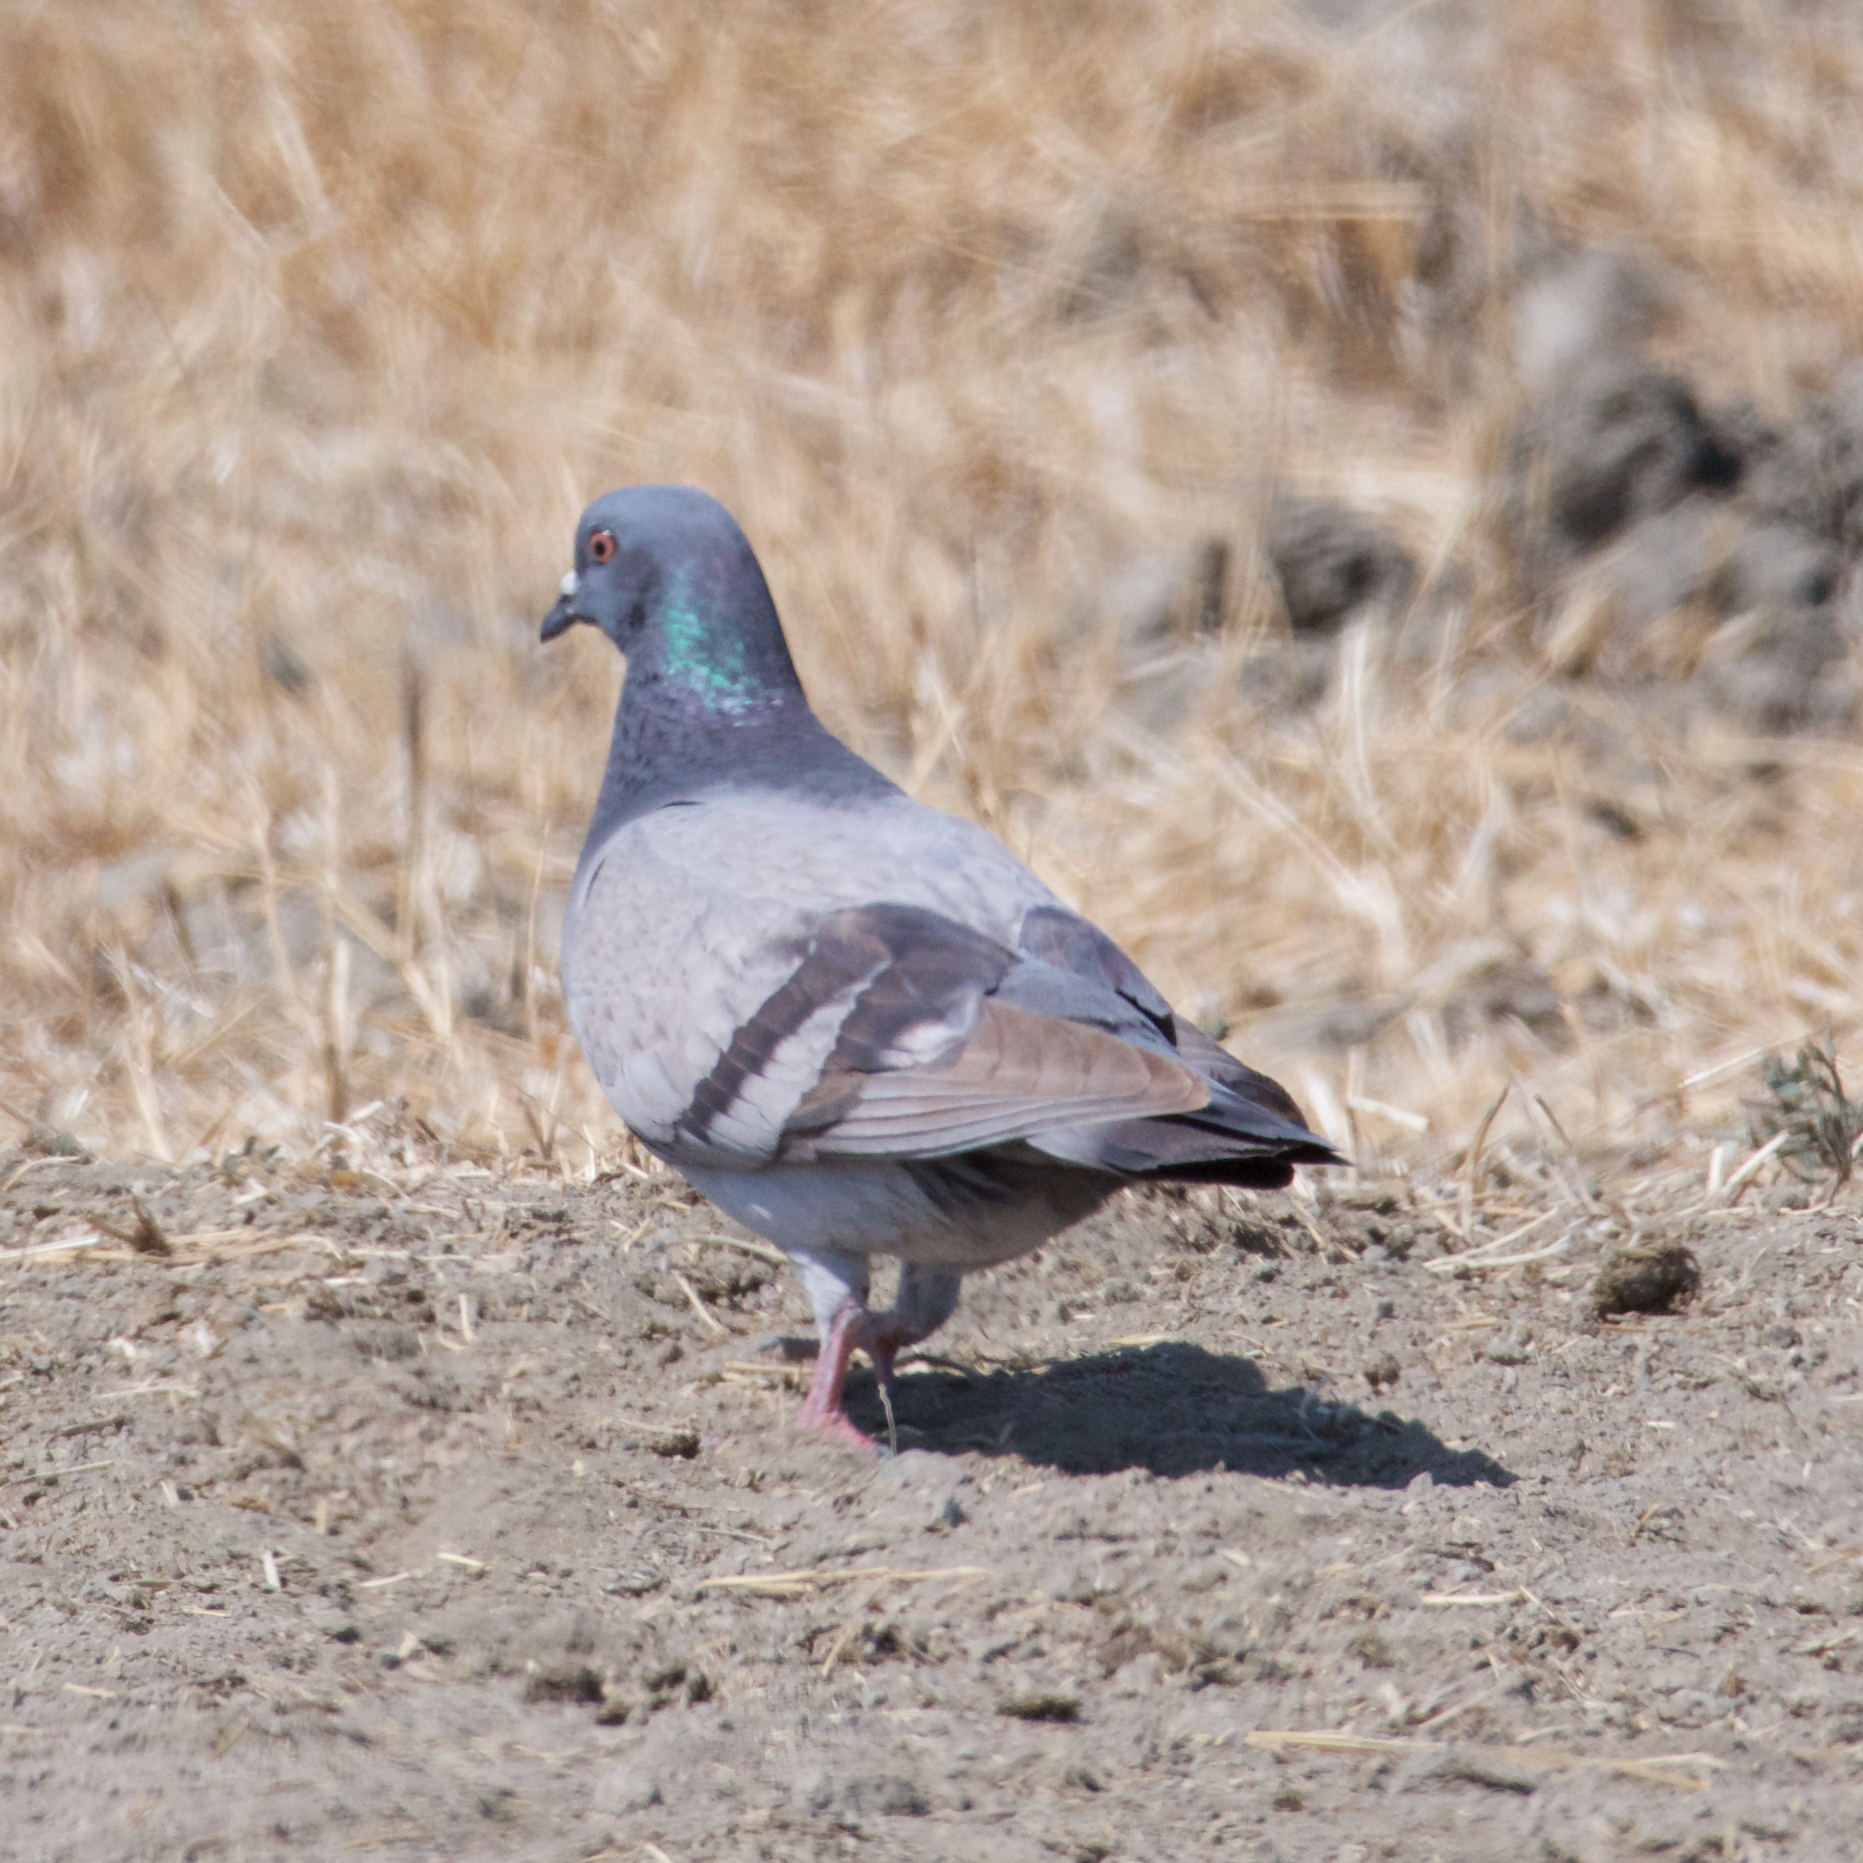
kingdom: Animalia
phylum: Chordata
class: Aves
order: Columbiformes
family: Columbidae
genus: Columba
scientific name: Columba livia
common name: Rock pigeon
